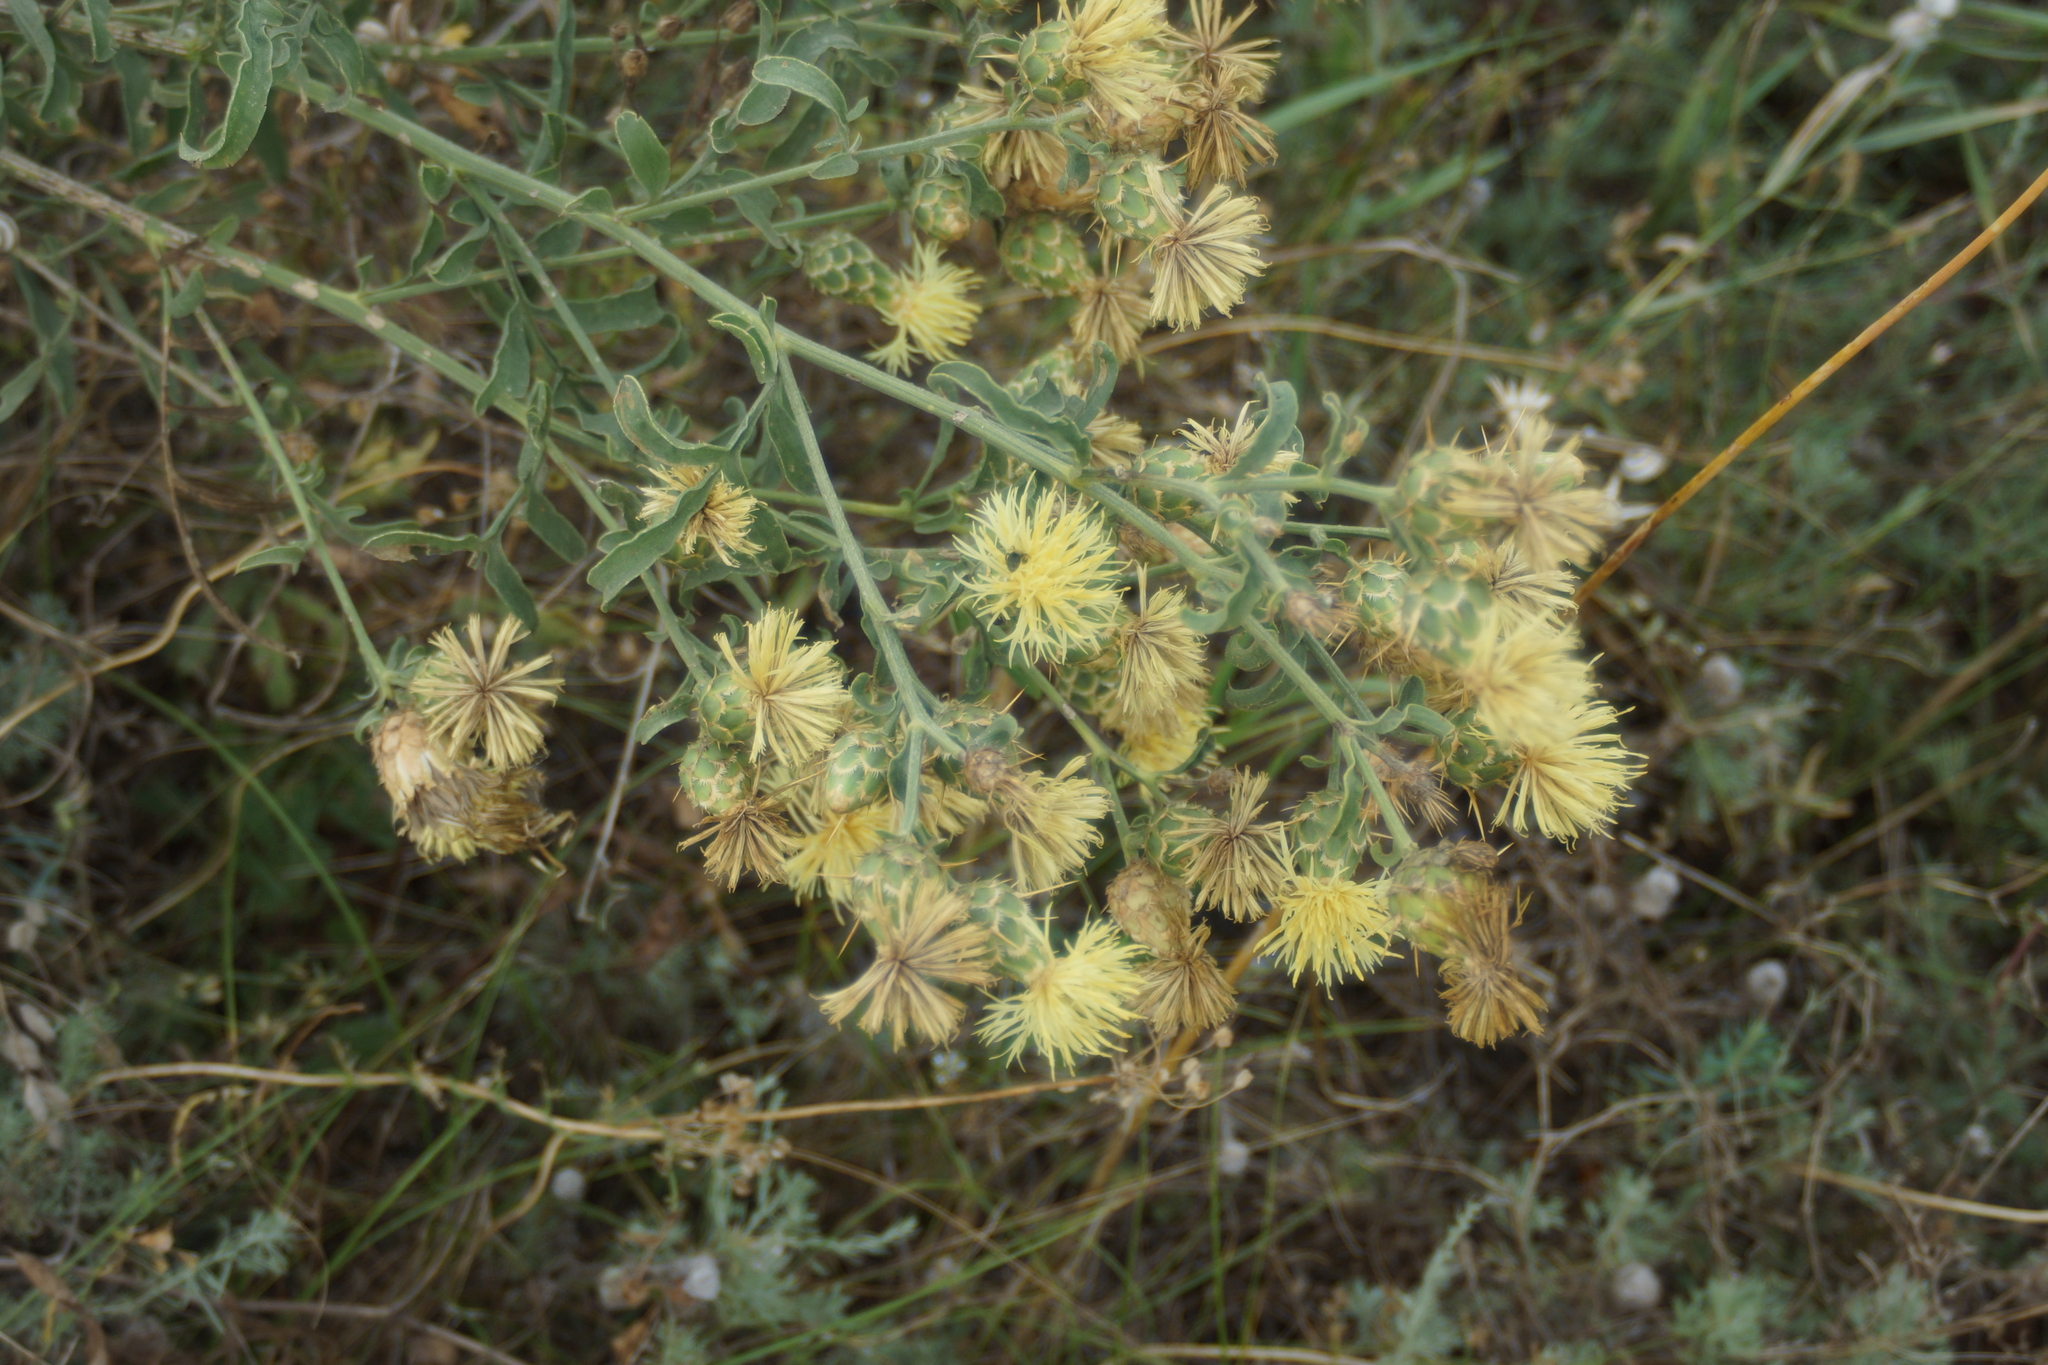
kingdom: Plantae
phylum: Tracheophyta
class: Magnoliopsida
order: Asterales
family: Asteraceae
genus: Centaurea
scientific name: Centaurea salonitana
